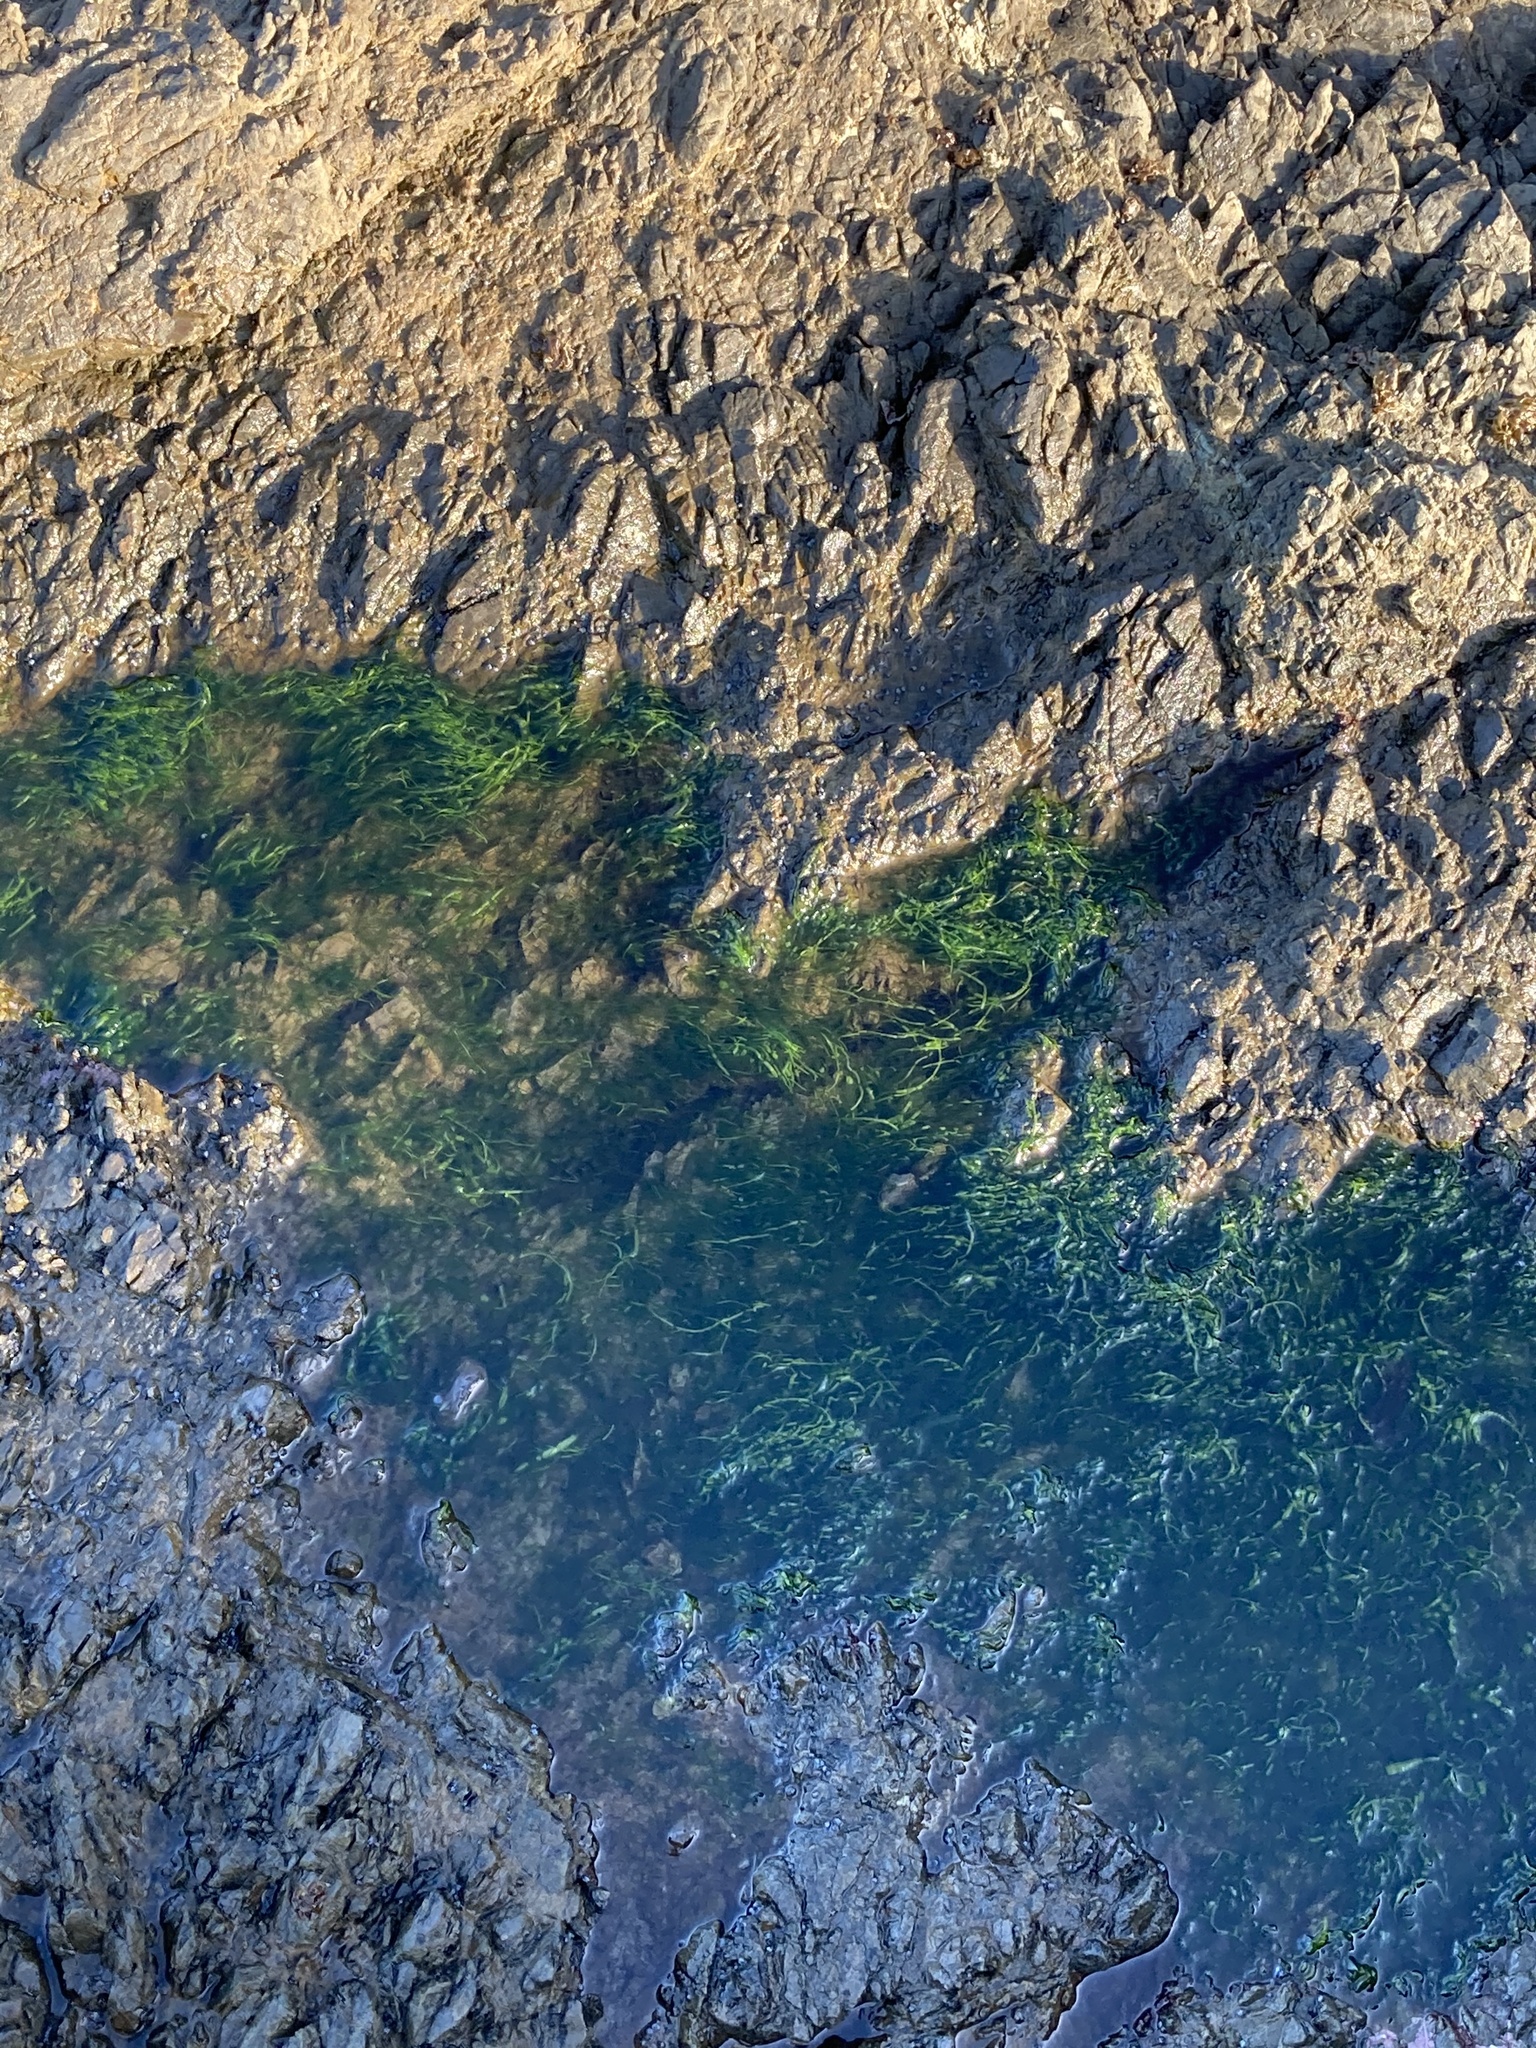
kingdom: Plantae
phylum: Chlorophyta
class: Ulvophyceae
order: Ulvales
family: Ulvaceae
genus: Ulva
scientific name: Ulva intestinalis
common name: Gut weed
